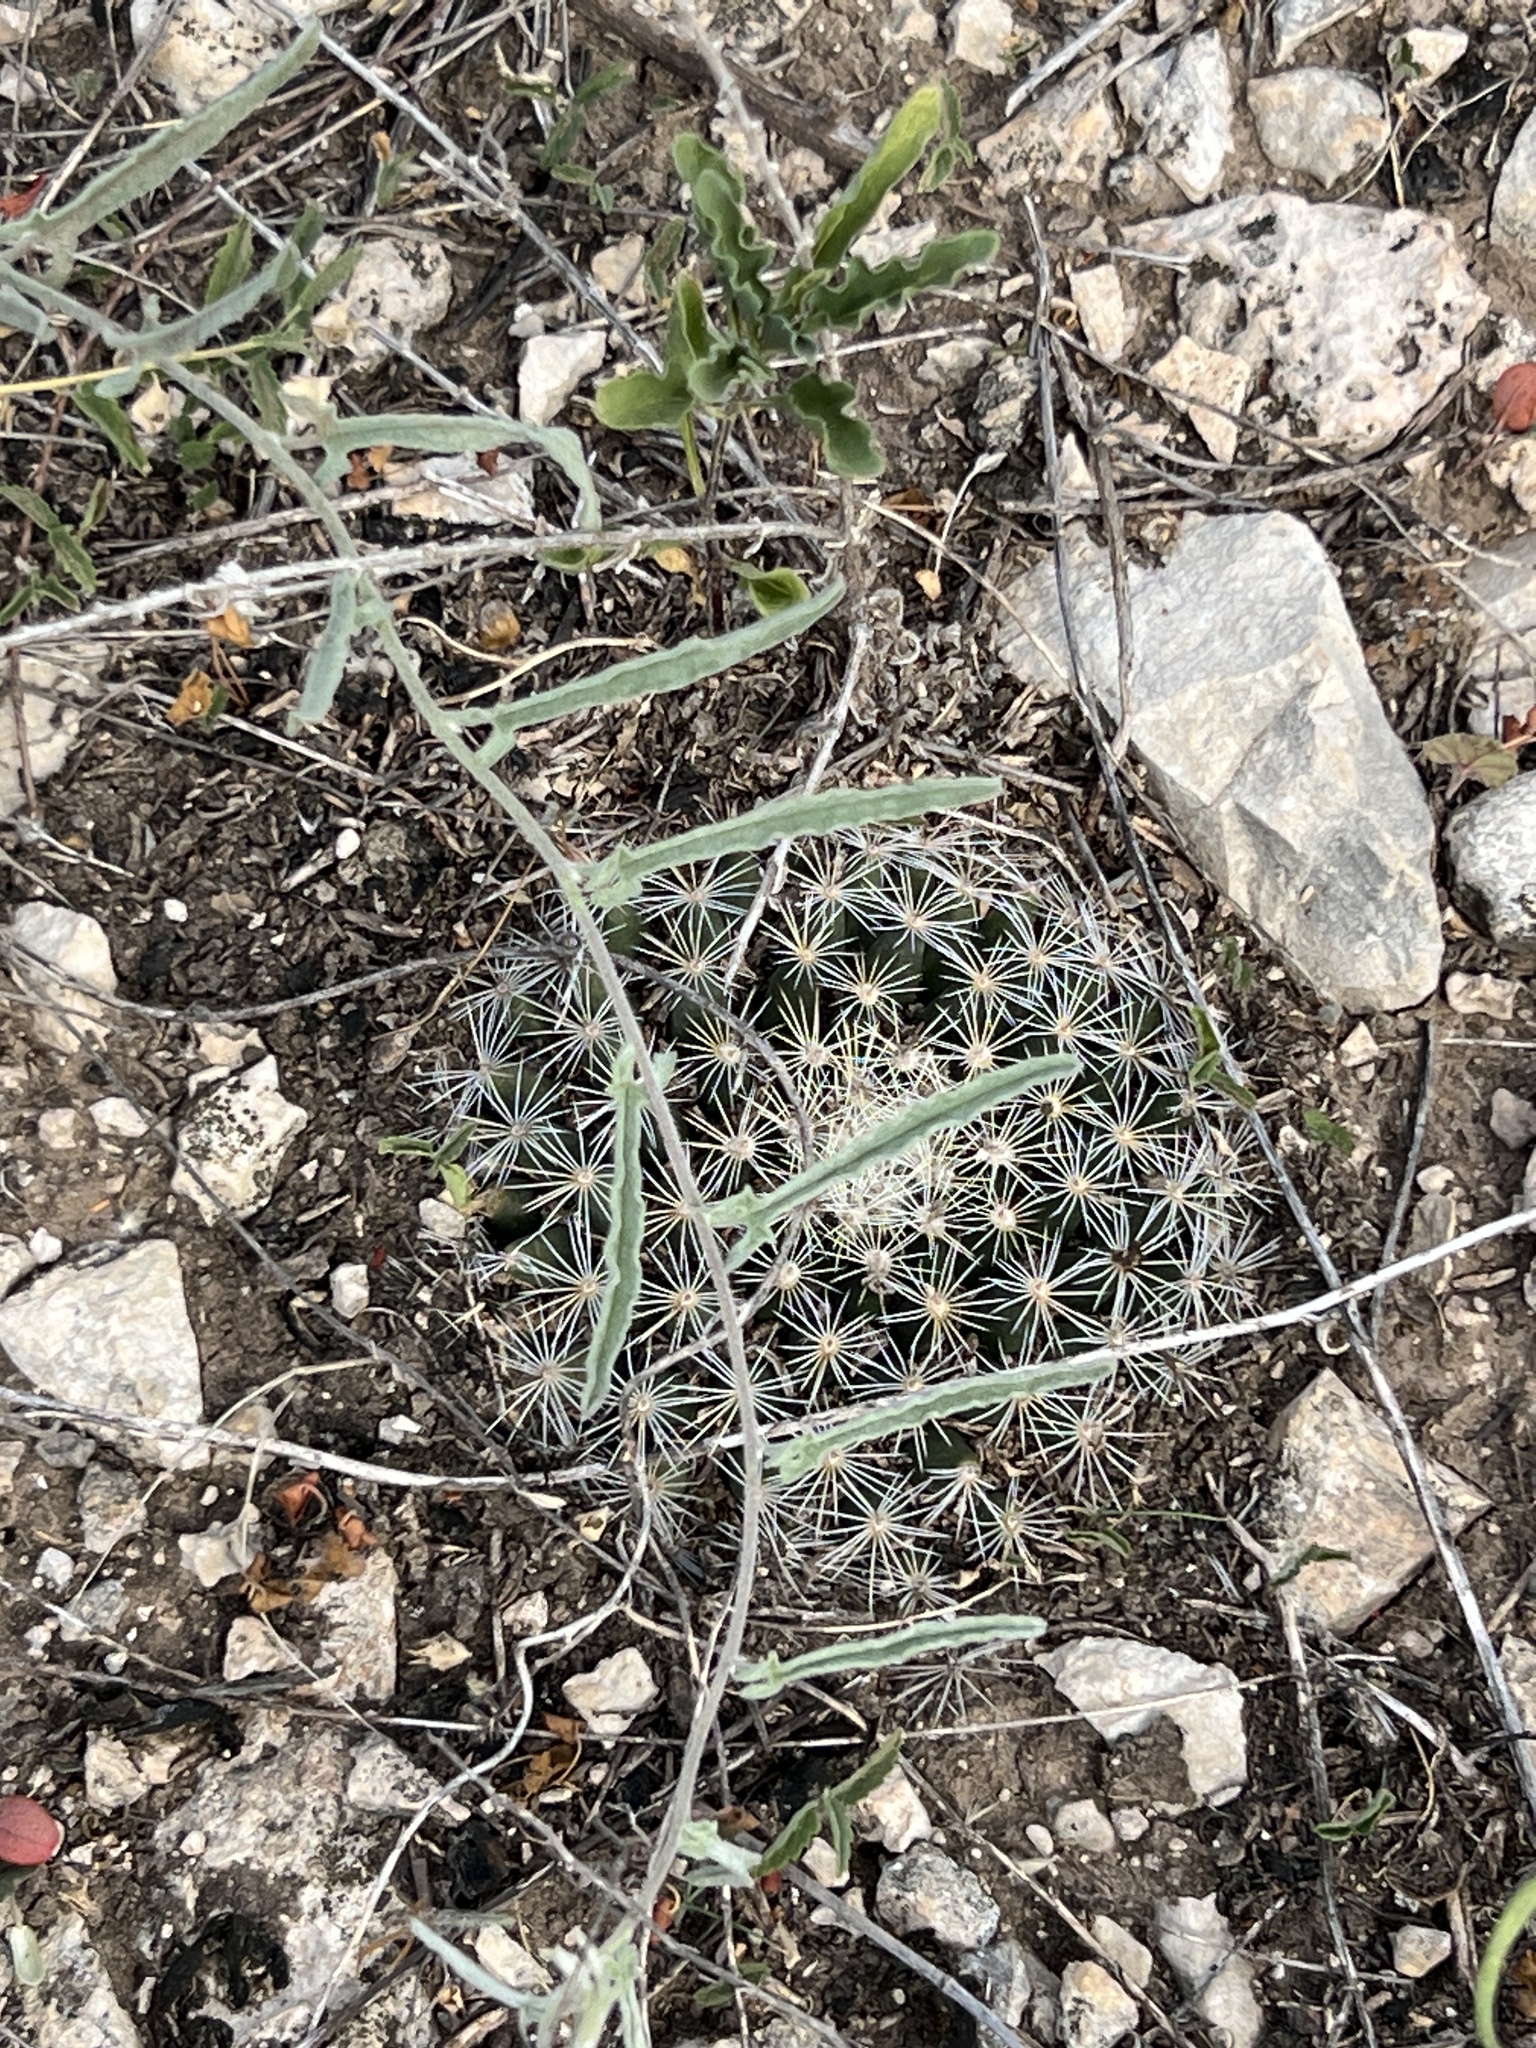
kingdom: Plantae
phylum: Tracheophyta
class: Magnoliopsida
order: Caryophyllales
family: Cactaceae
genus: Mammillaria
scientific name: Mammillaria heyderi
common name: Little nipple cactus
